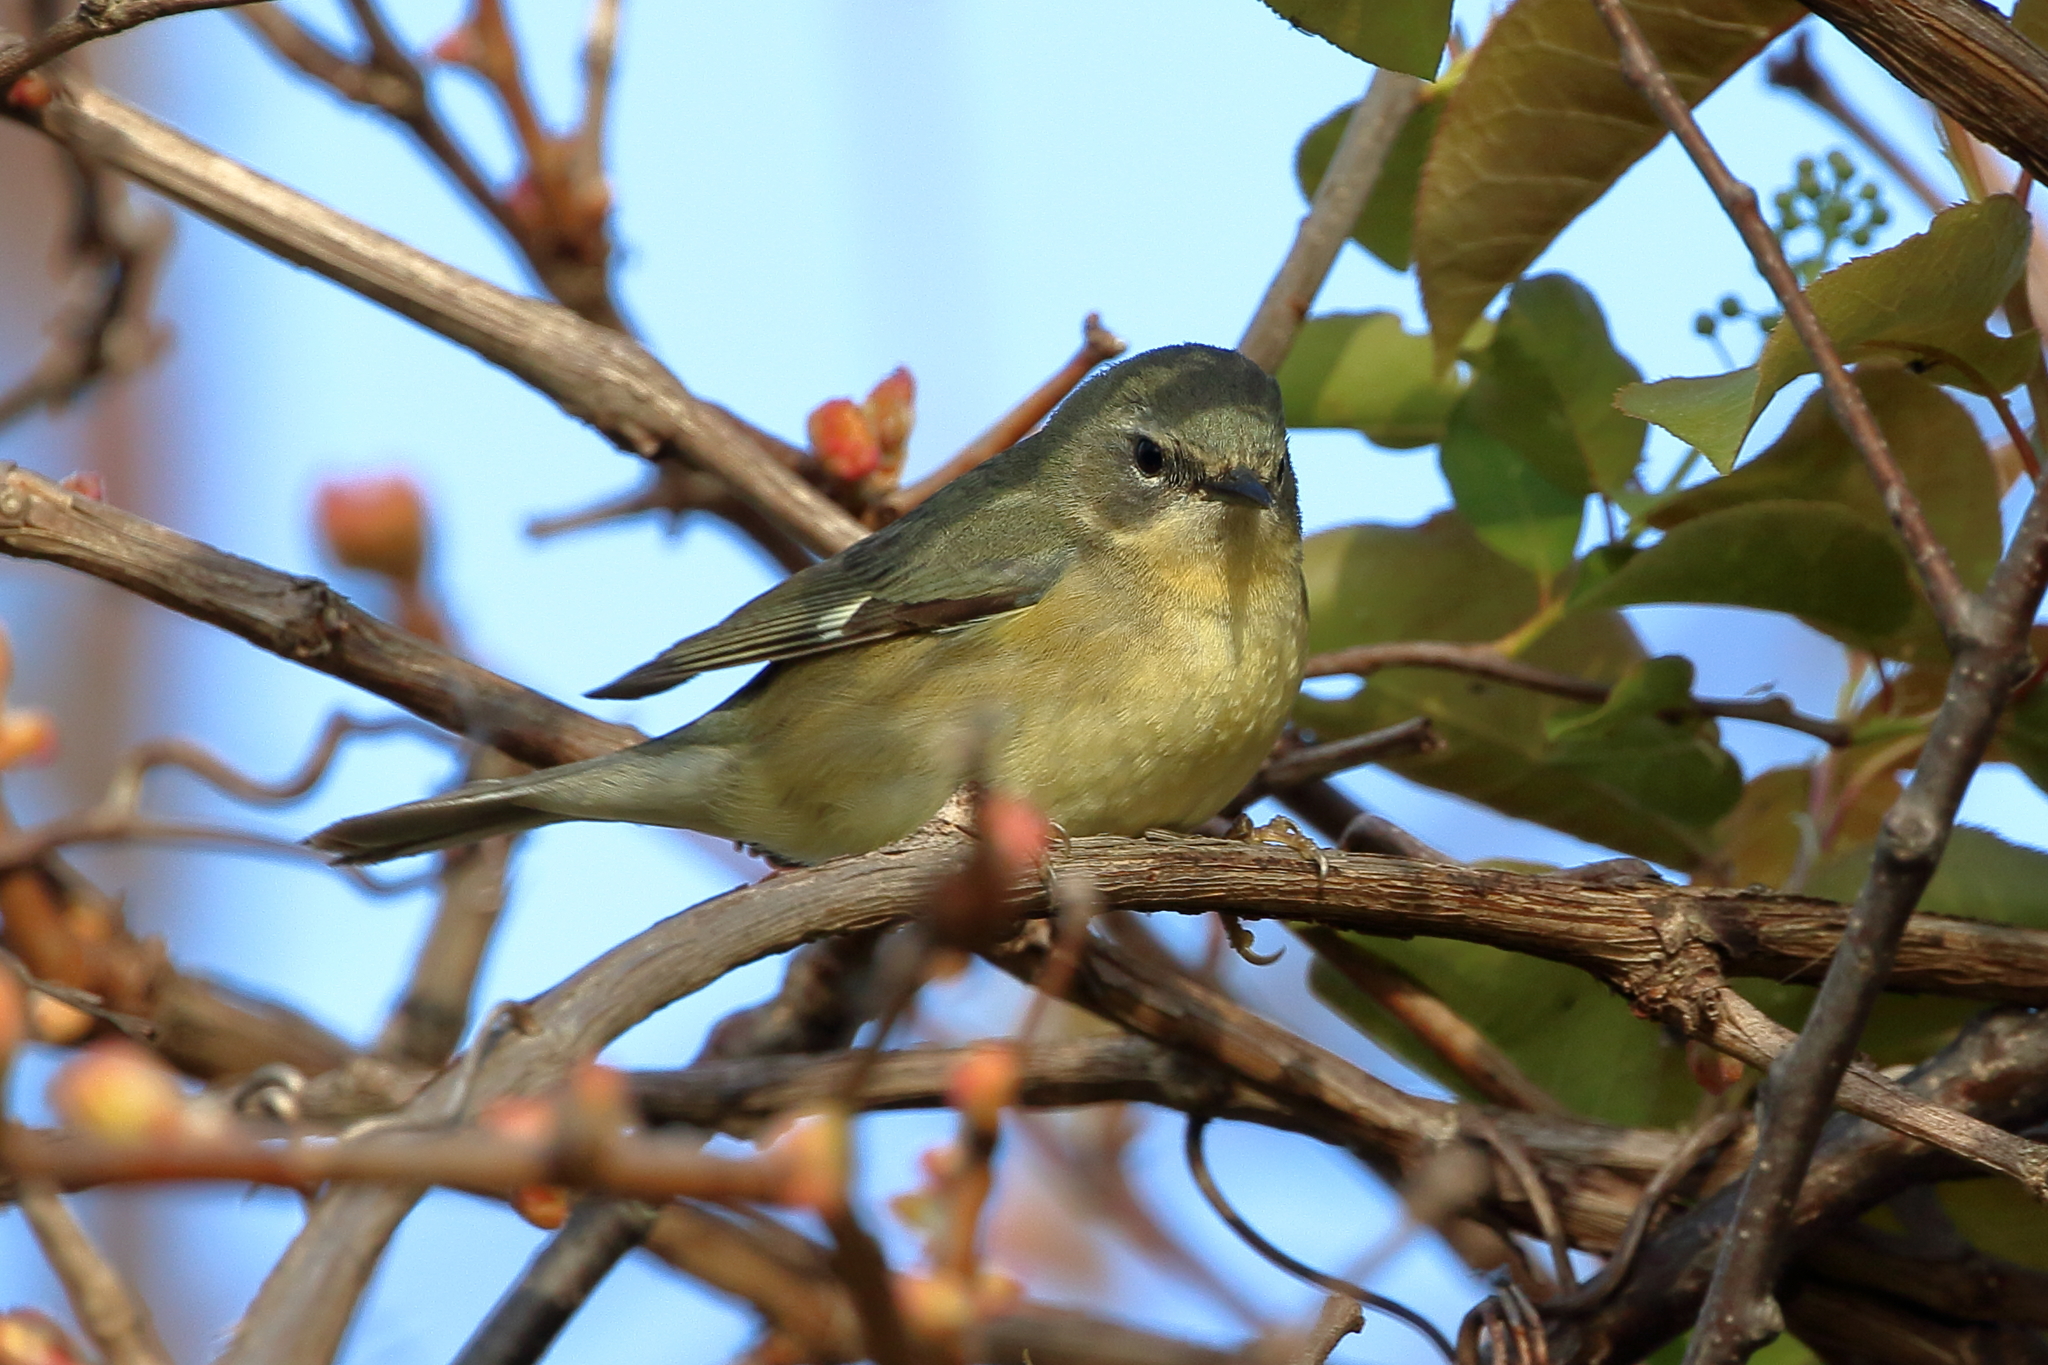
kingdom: Animalia
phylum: Chordata
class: Aves
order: Passeriformes
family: Parulidae
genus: Setophaga
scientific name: Setophaga caerulescens
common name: Black-throated blue warbler
